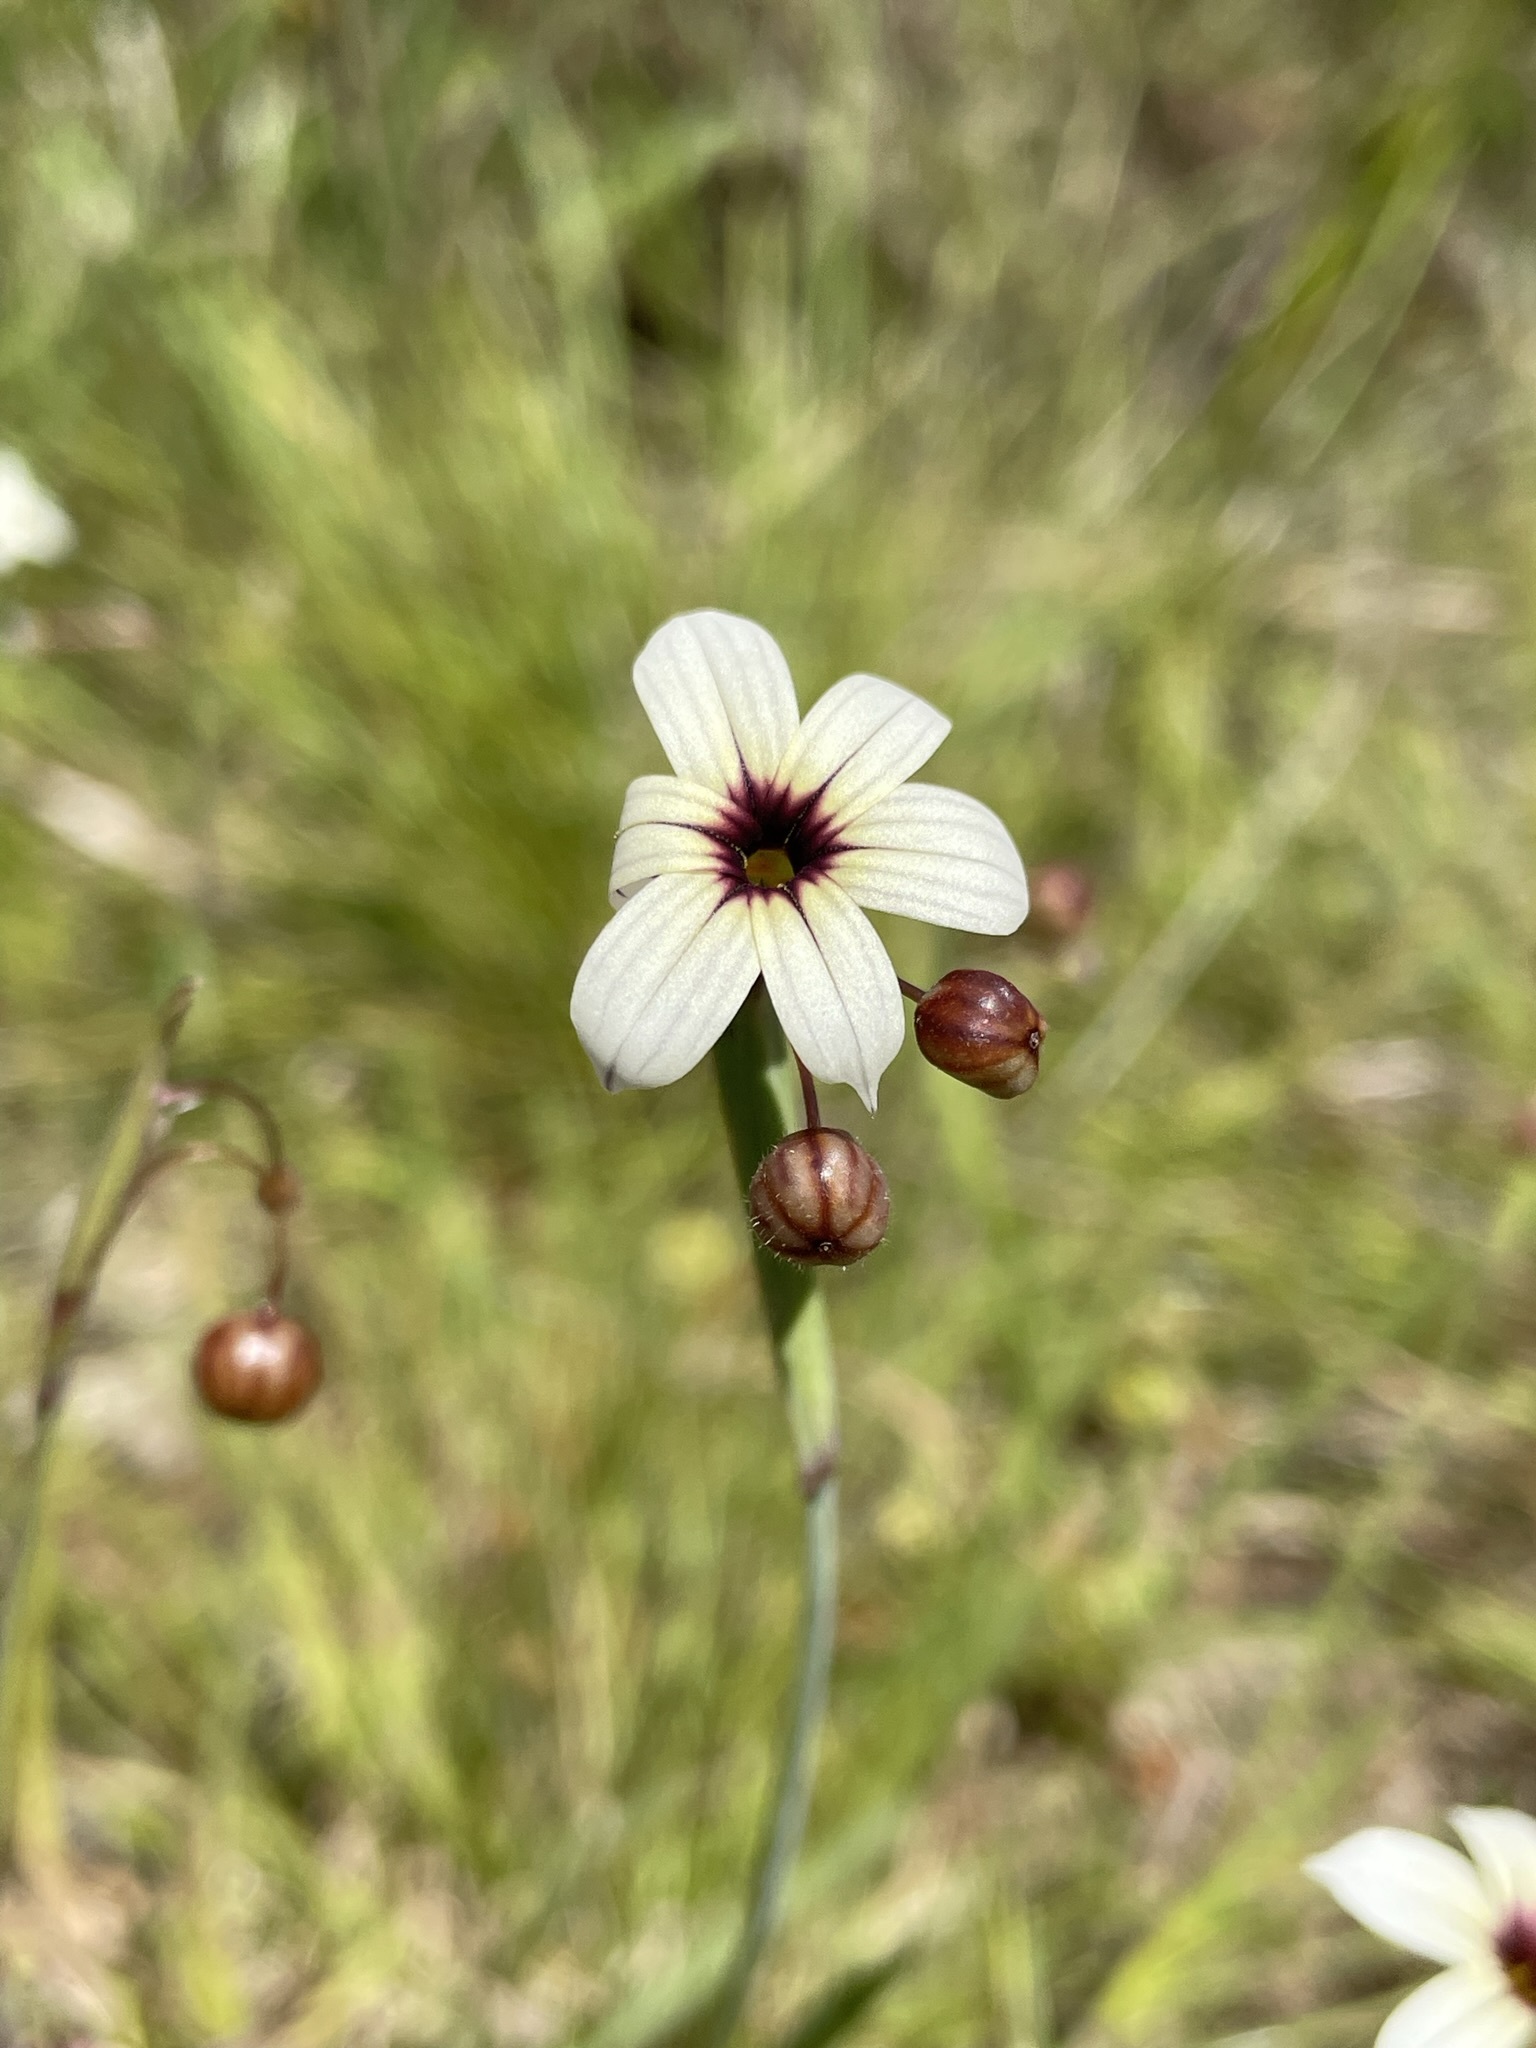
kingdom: Plantae
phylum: Tracheophyta
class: Liliopsida
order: Asparagales
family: Iridaceae
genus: Sisyrinchium
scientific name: Sisyrinchium micranthum
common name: Bermuda pigroot
